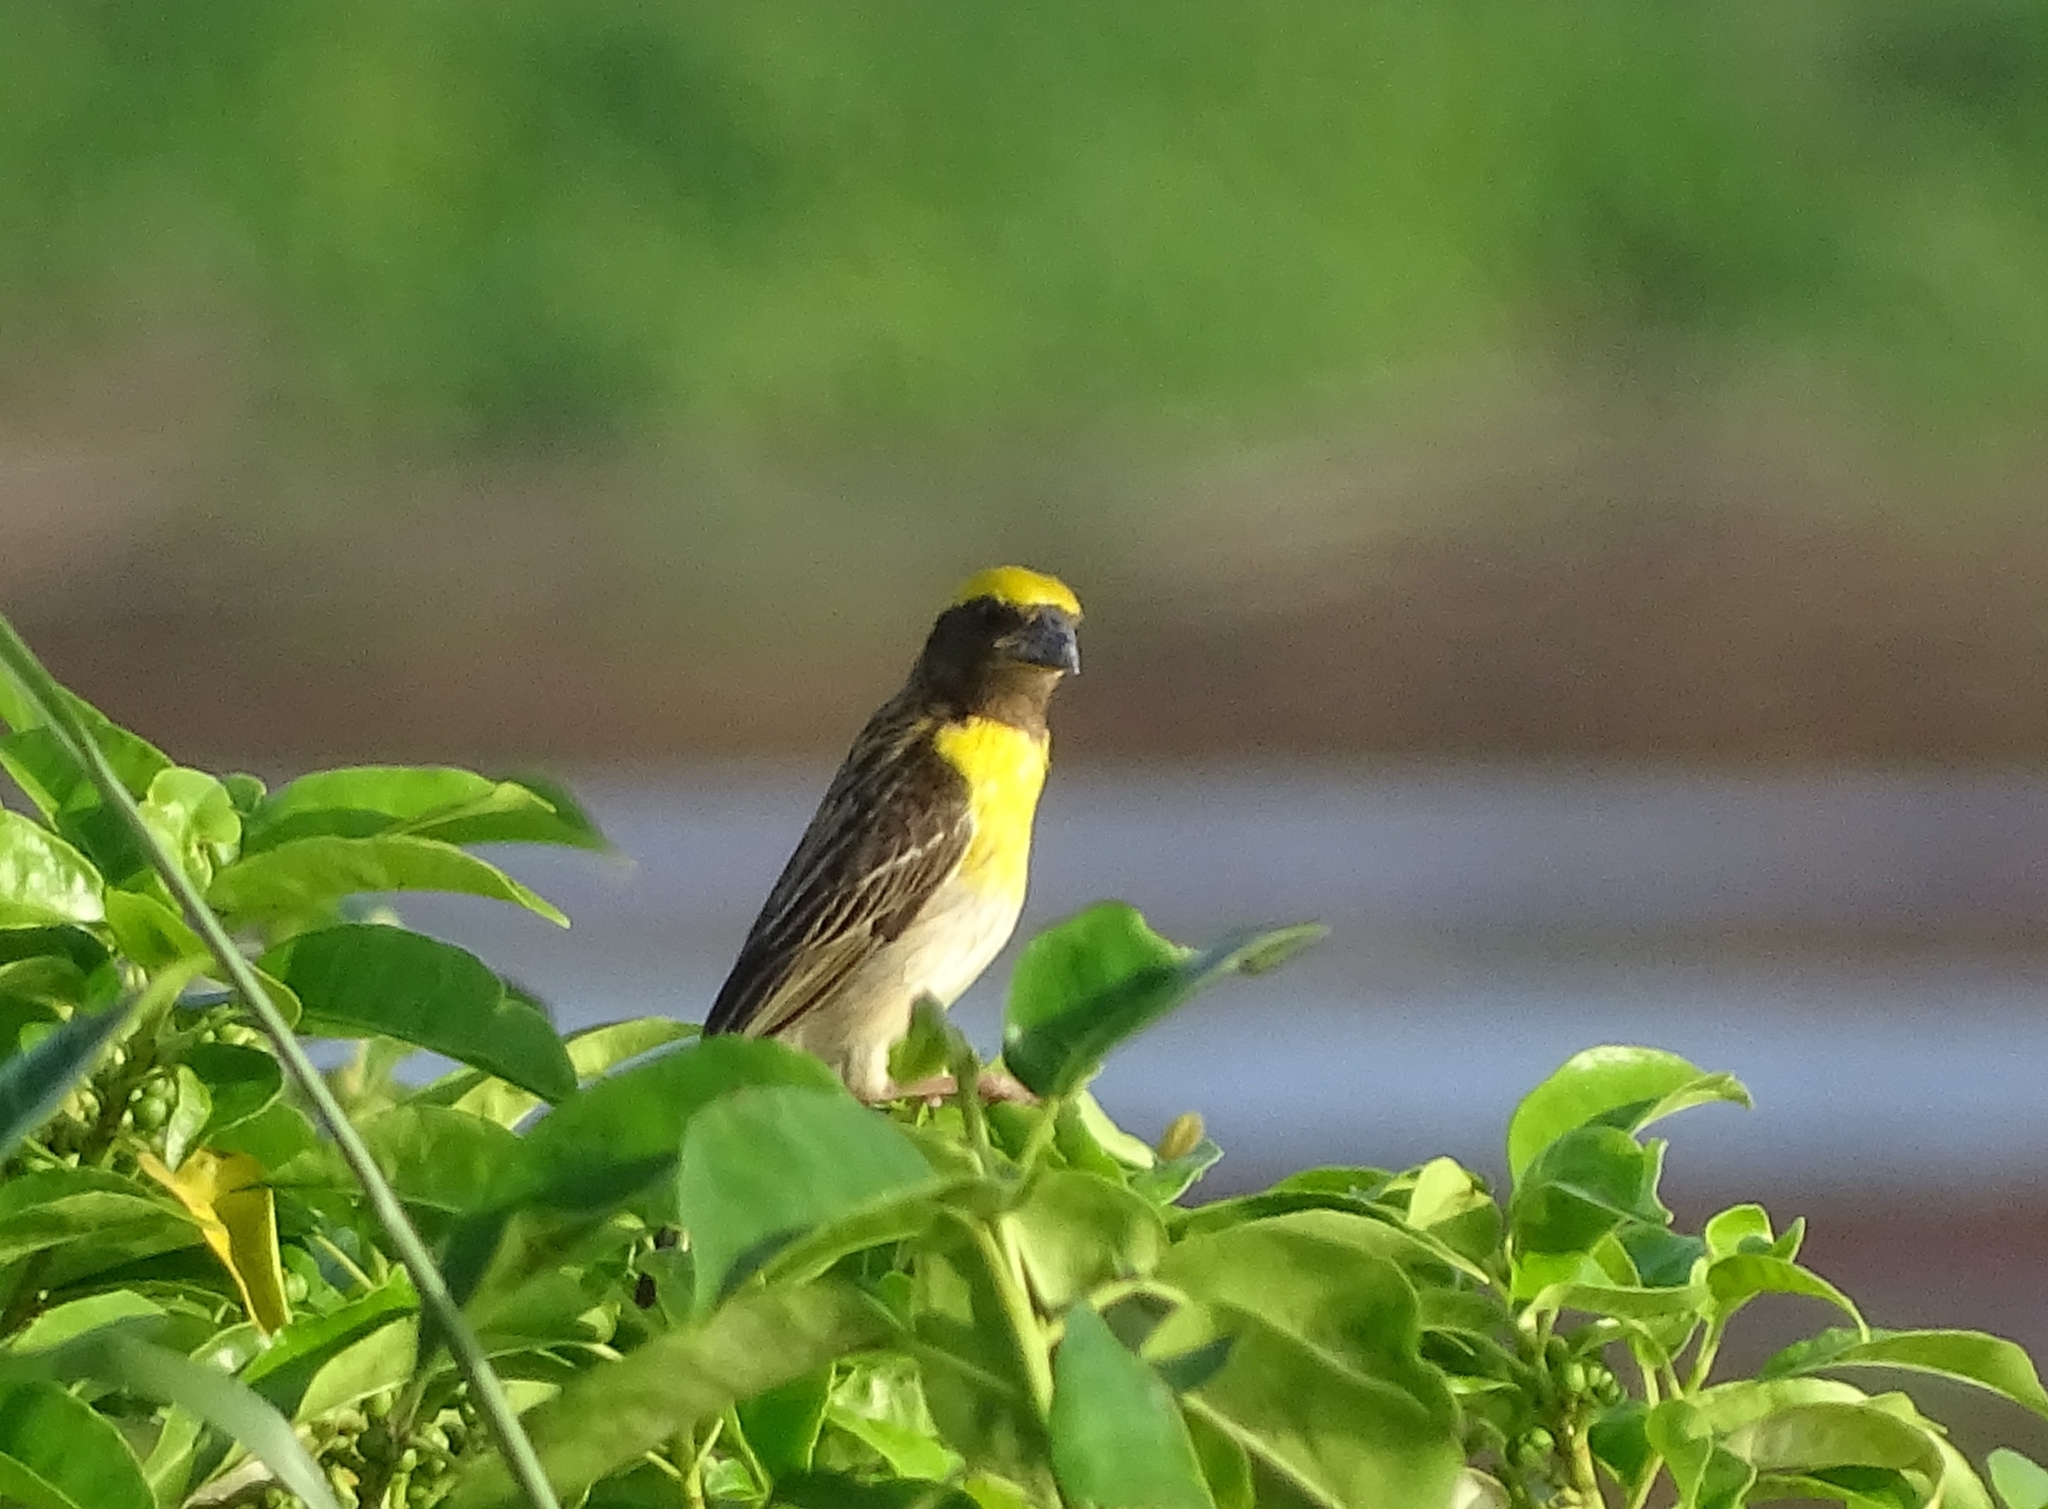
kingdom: Animalia
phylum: Chordata
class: Aves
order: Passeriformes
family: Ploceidae
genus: Ploceus
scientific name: Ploceus philippinus
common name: Baya weaver
